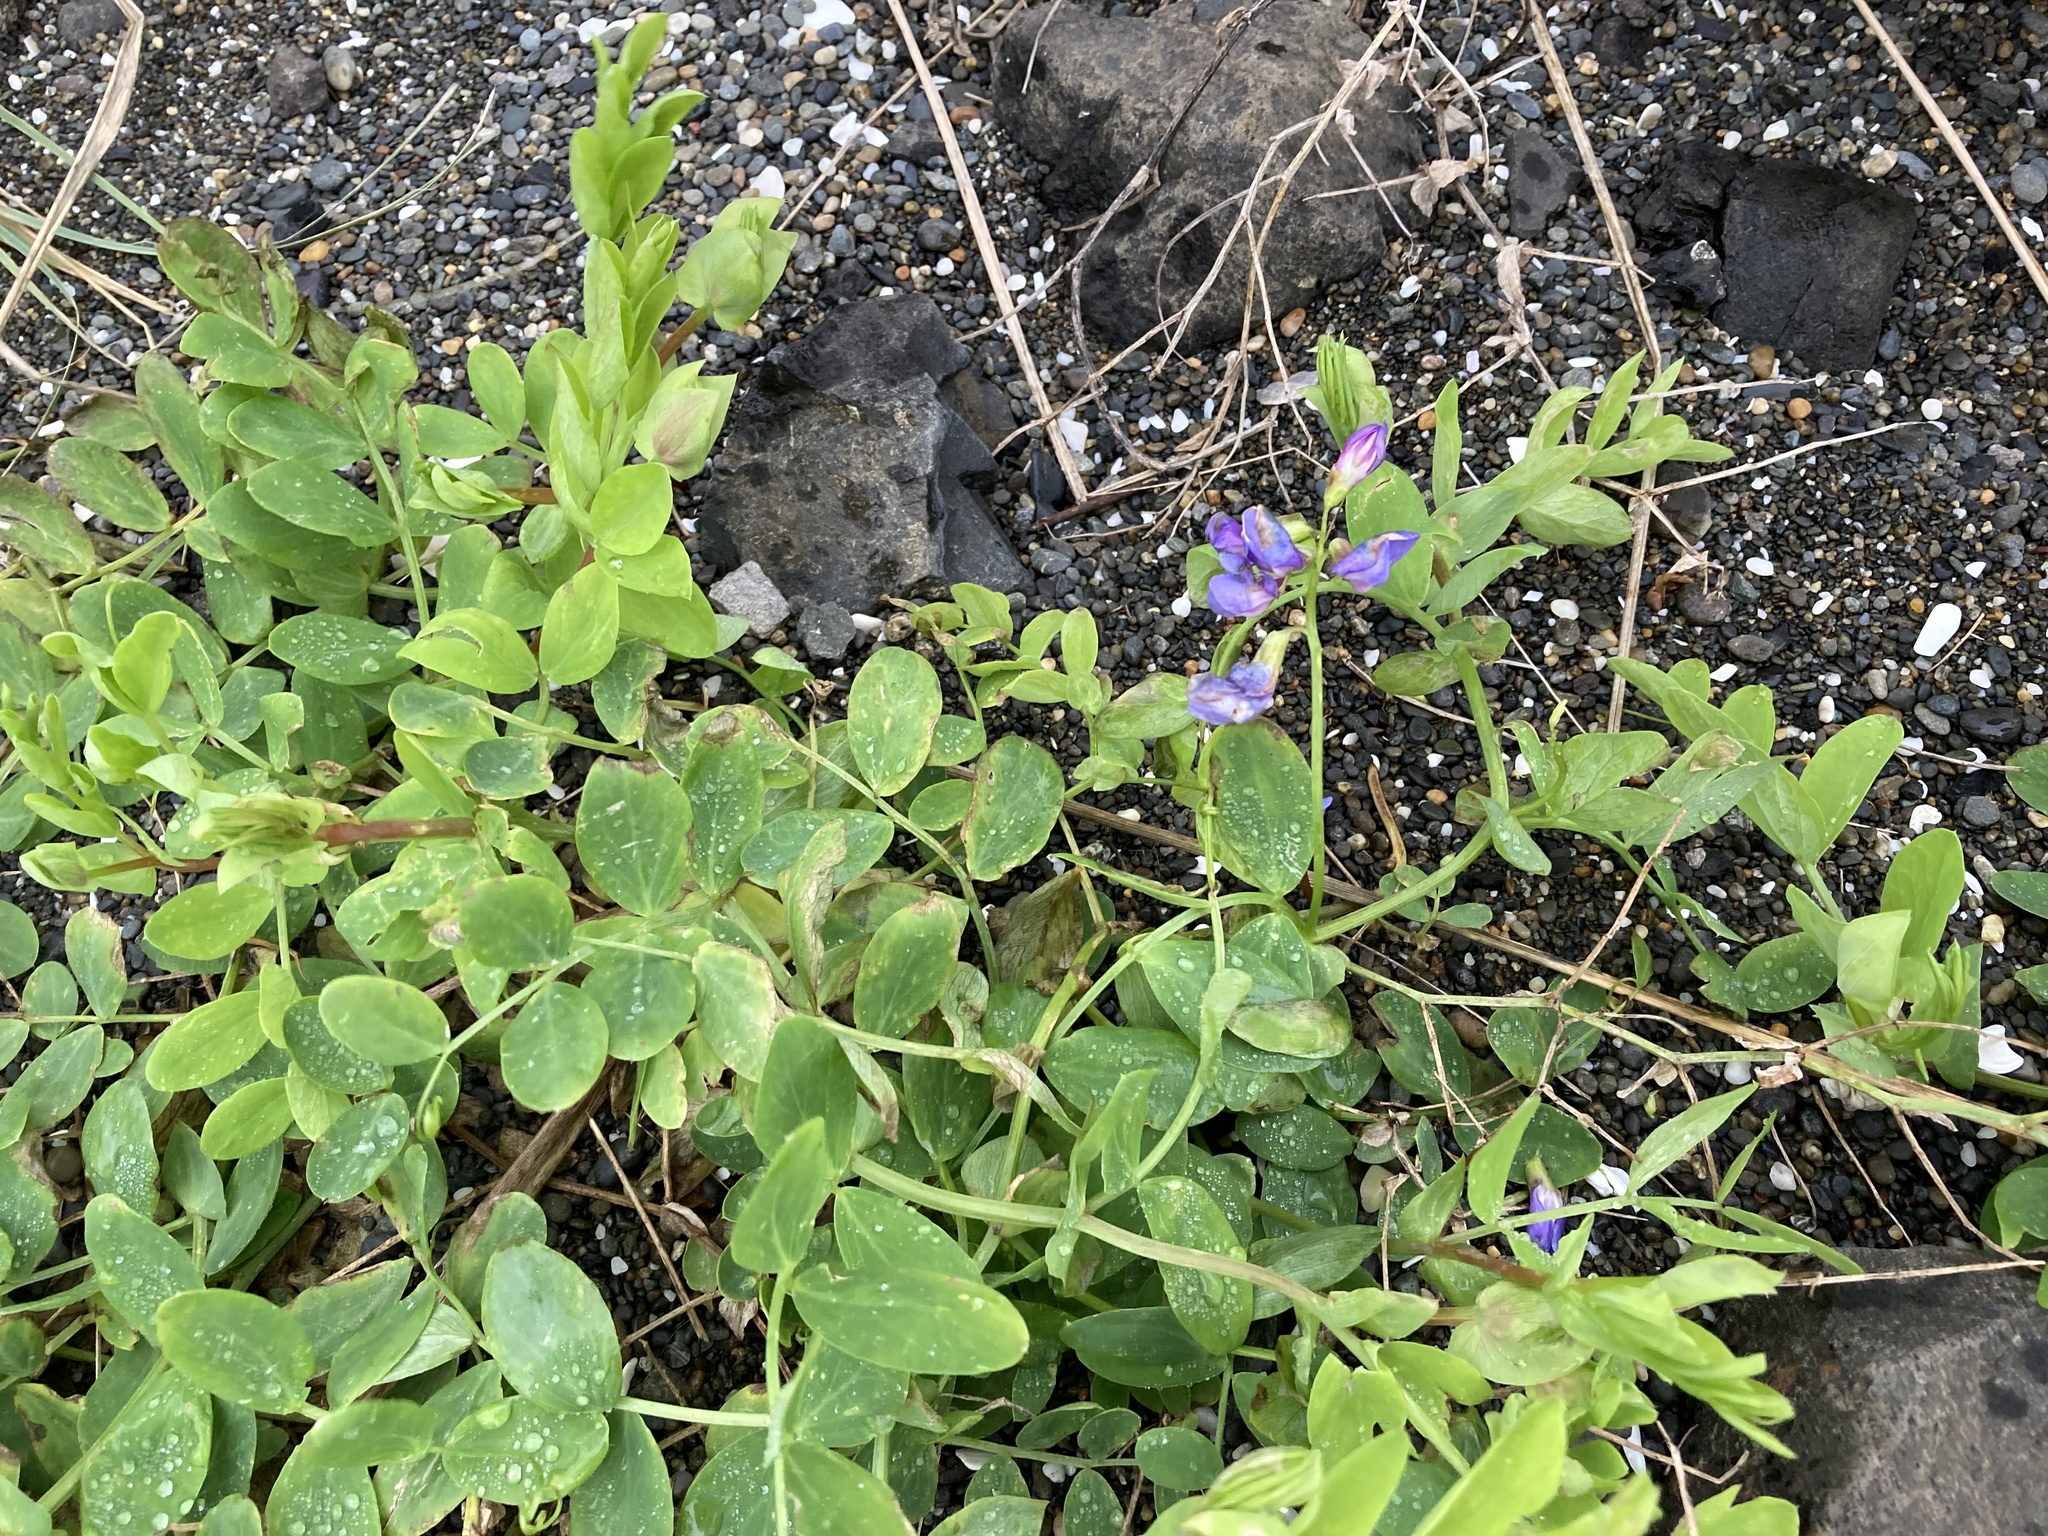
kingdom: Plantae
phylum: Tracheophyta
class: Magnoliopsida
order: Fabales
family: Fabaceae
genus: Lathyrus
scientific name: Lathyrus japonicus
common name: Sea pea
